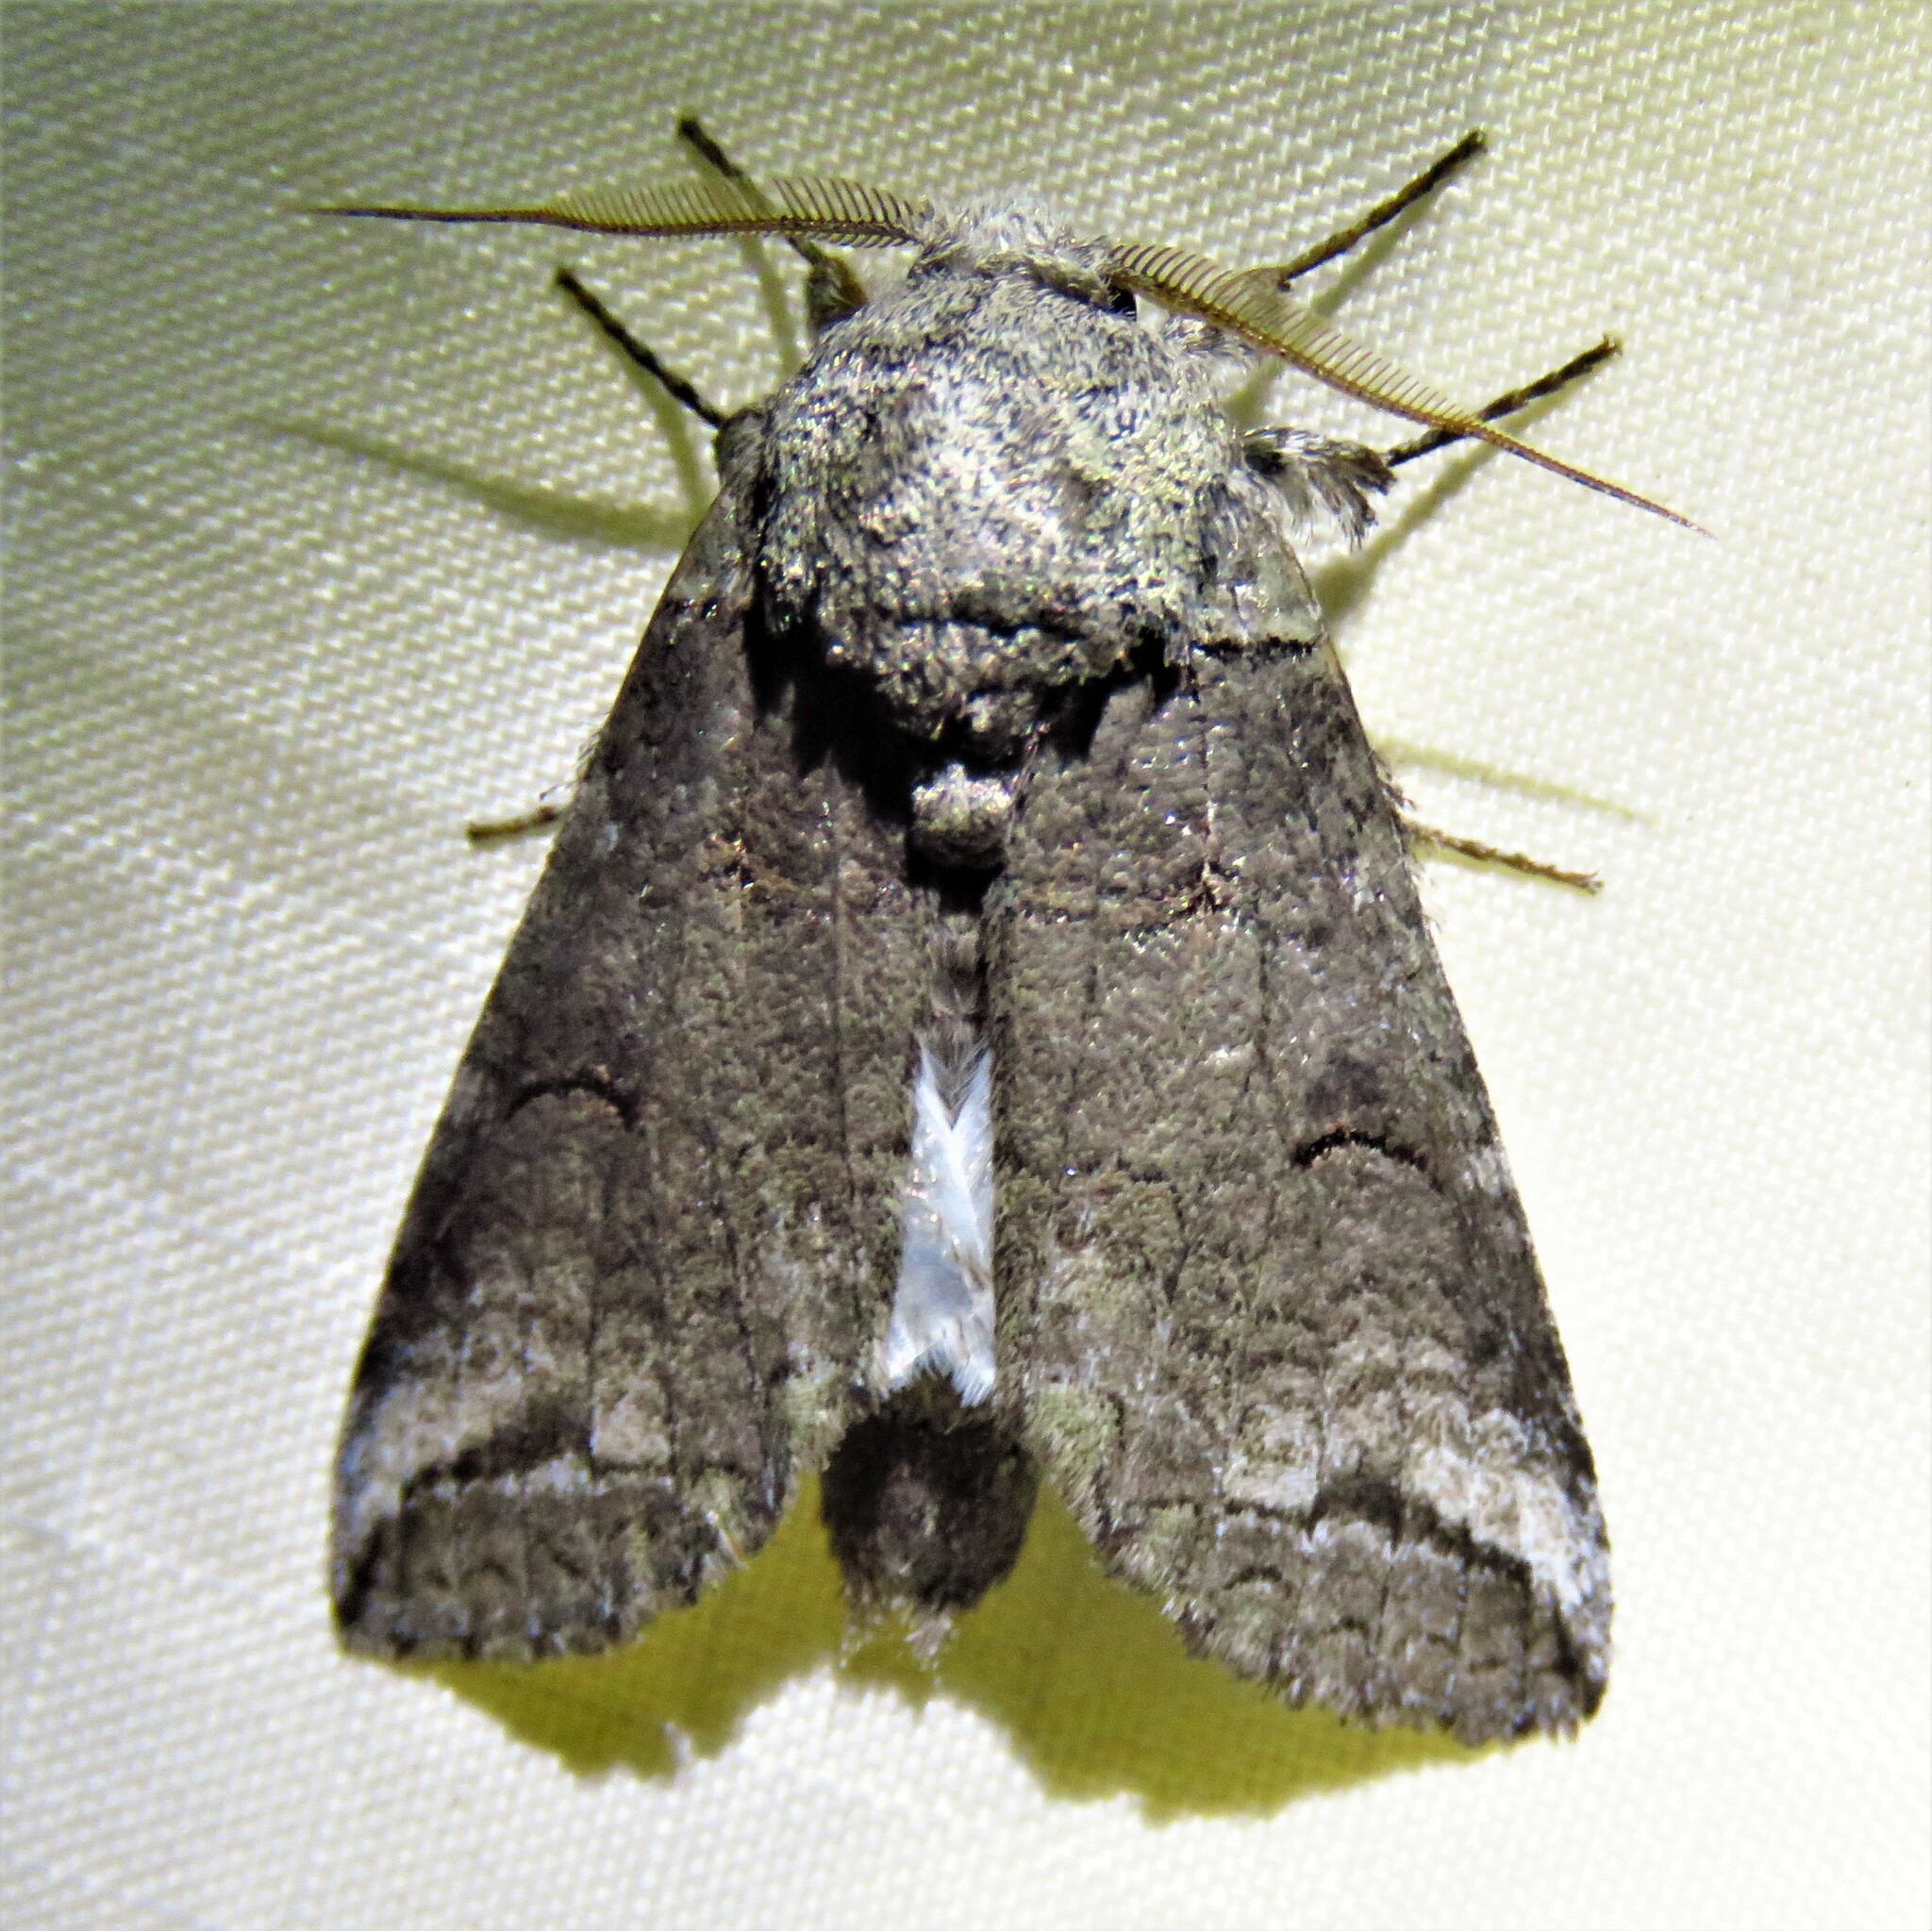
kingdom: Animalia
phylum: Arthropoda
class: Insecta
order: Lepidoptera
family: Notodontidae
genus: Heterocampa
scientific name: Heterocampa astartoides
